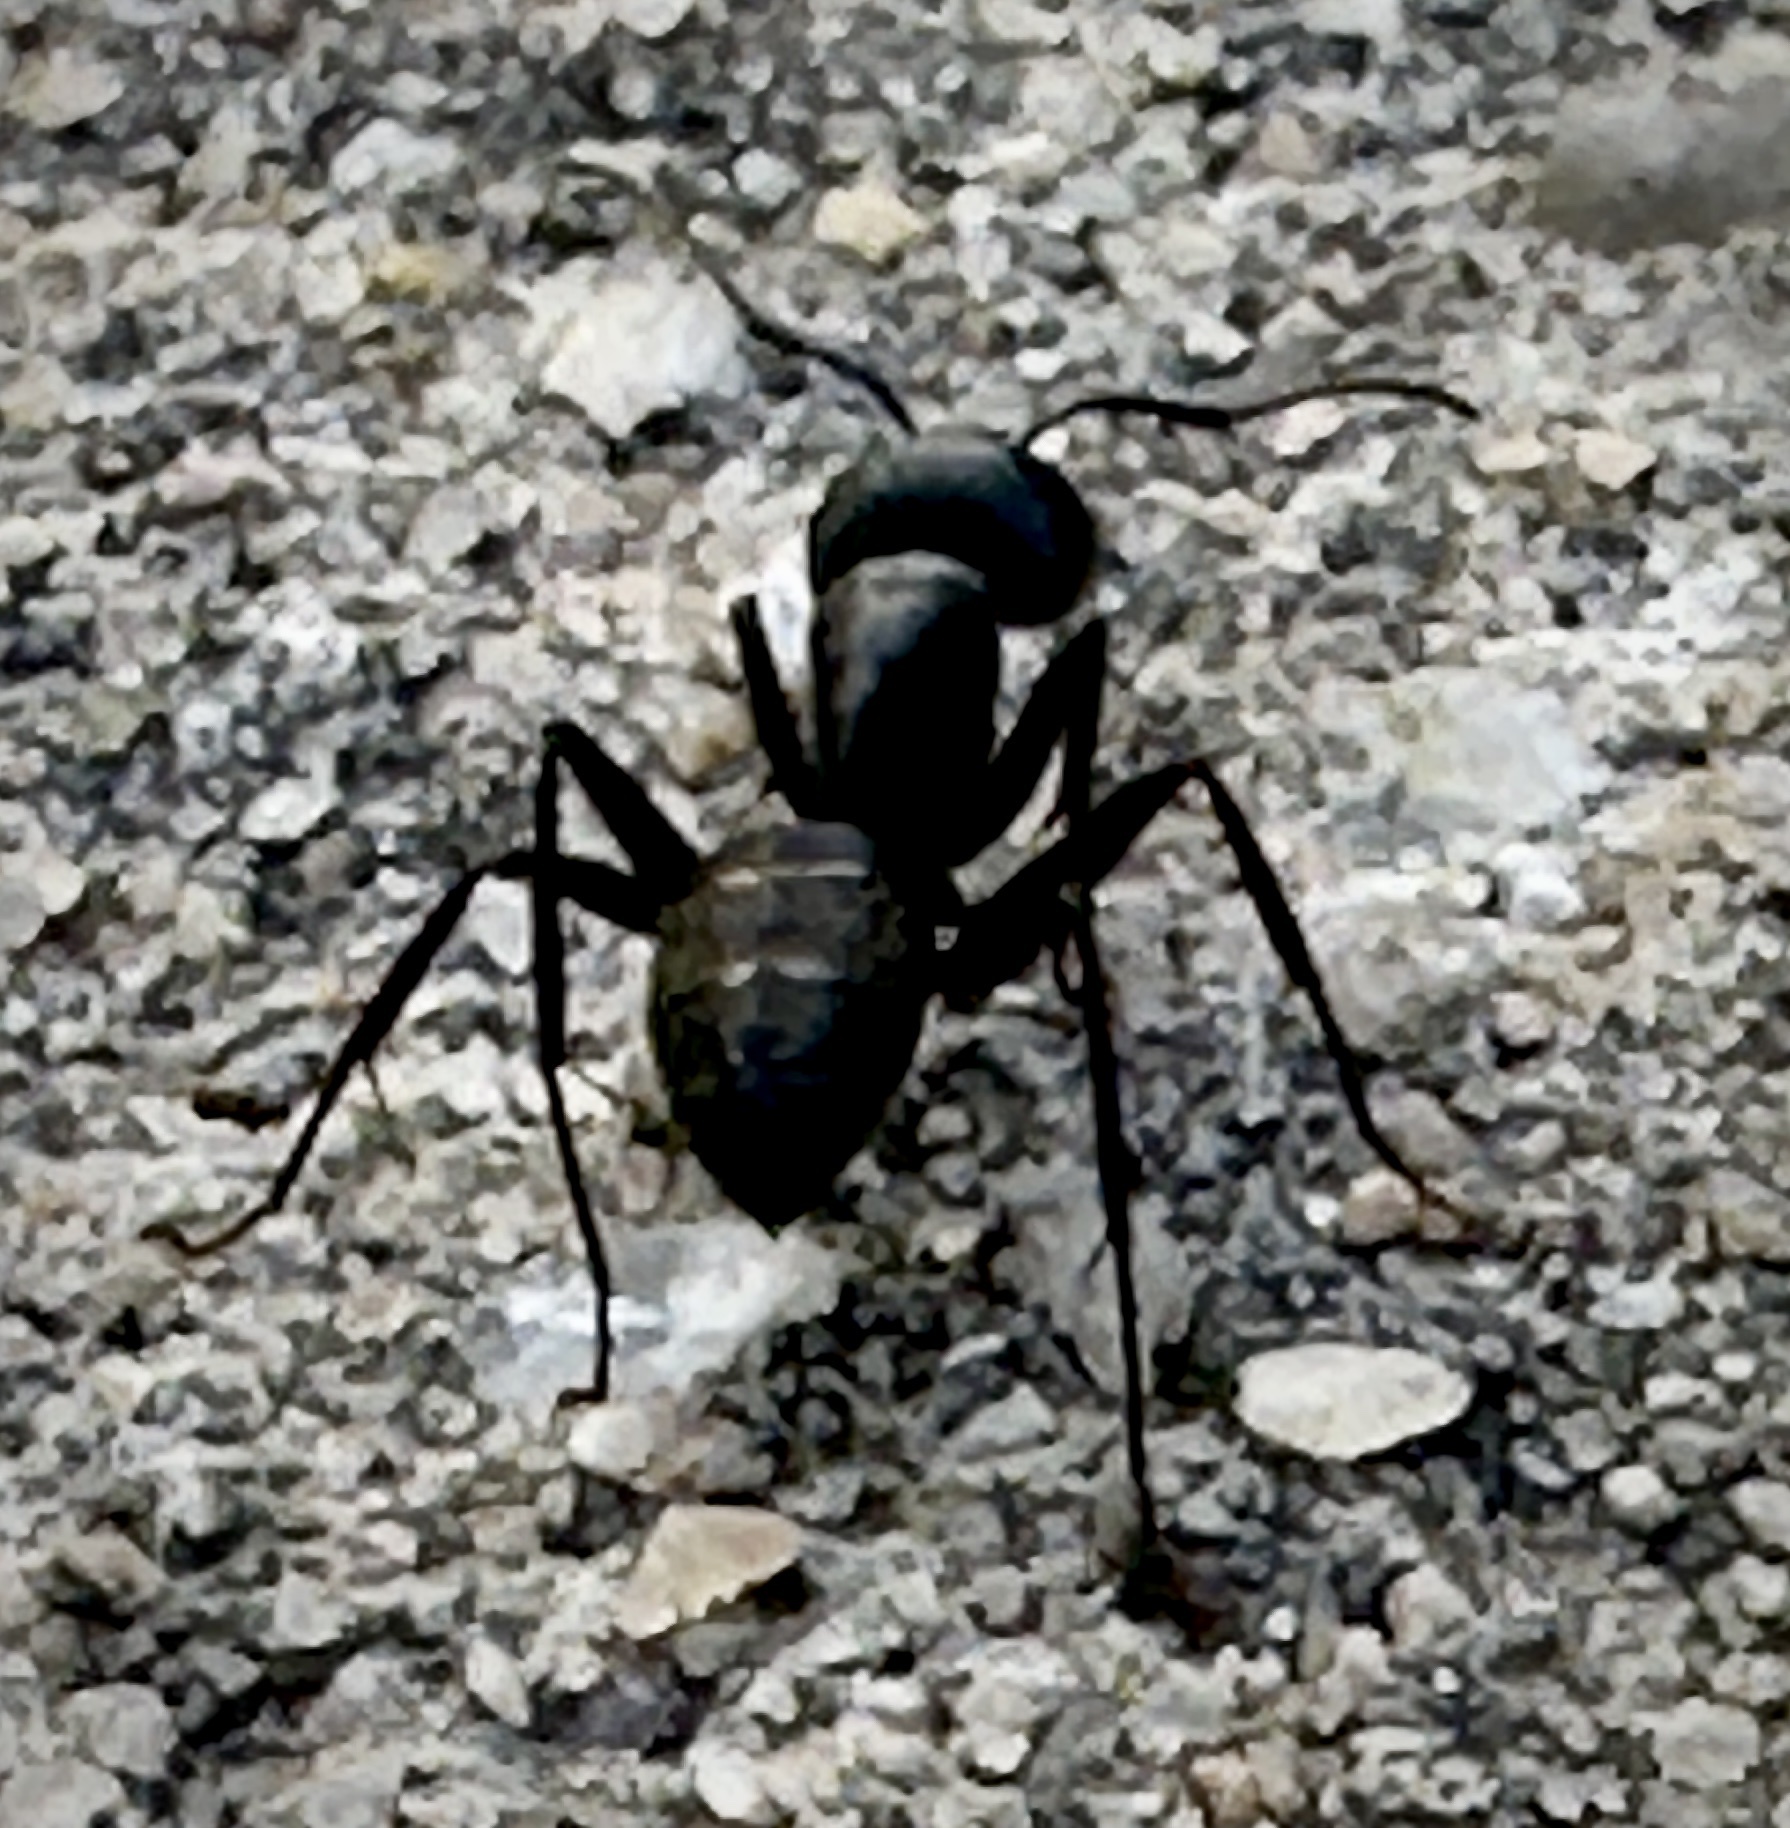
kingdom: Animalia
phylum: Arthropoda
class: Insecta
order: Hymenoptera
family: Formicidae
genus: Camponotus
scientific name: Camponotus pennsylvanicus
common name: Black carpenter ant
